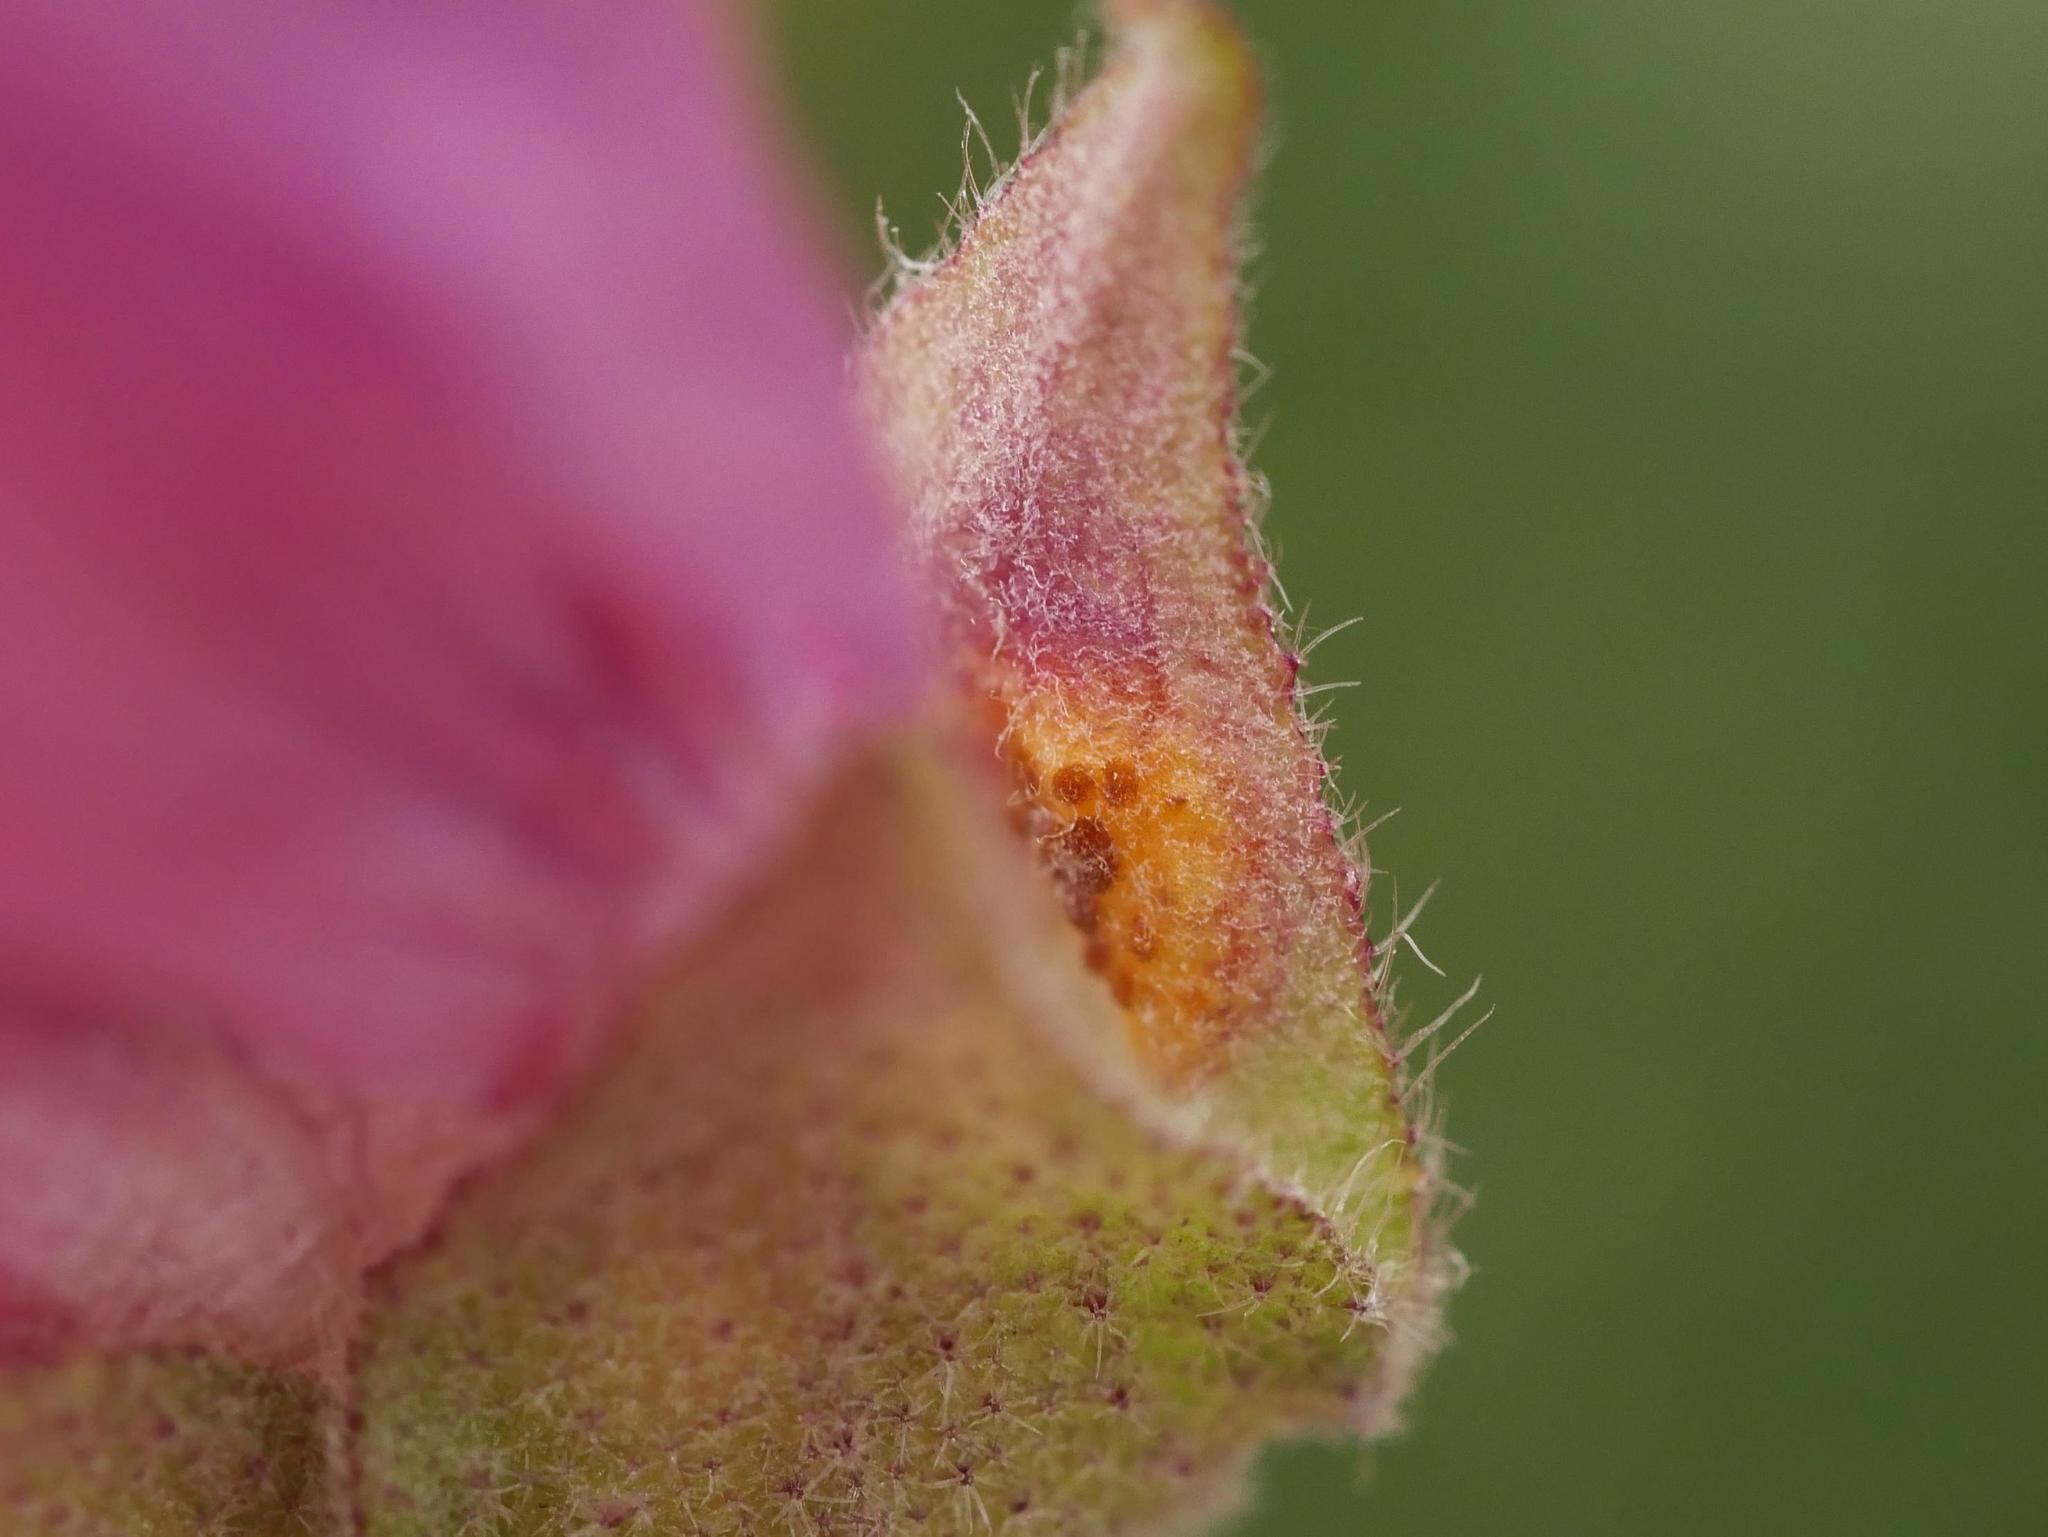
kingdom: Fungi
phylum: Basidiomycota
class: Pucciniomycetes
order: Pucciniales
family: Pucciniaceae
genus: Puccinia
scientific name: Puccinia malvacearum
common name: Hollyhock rust
